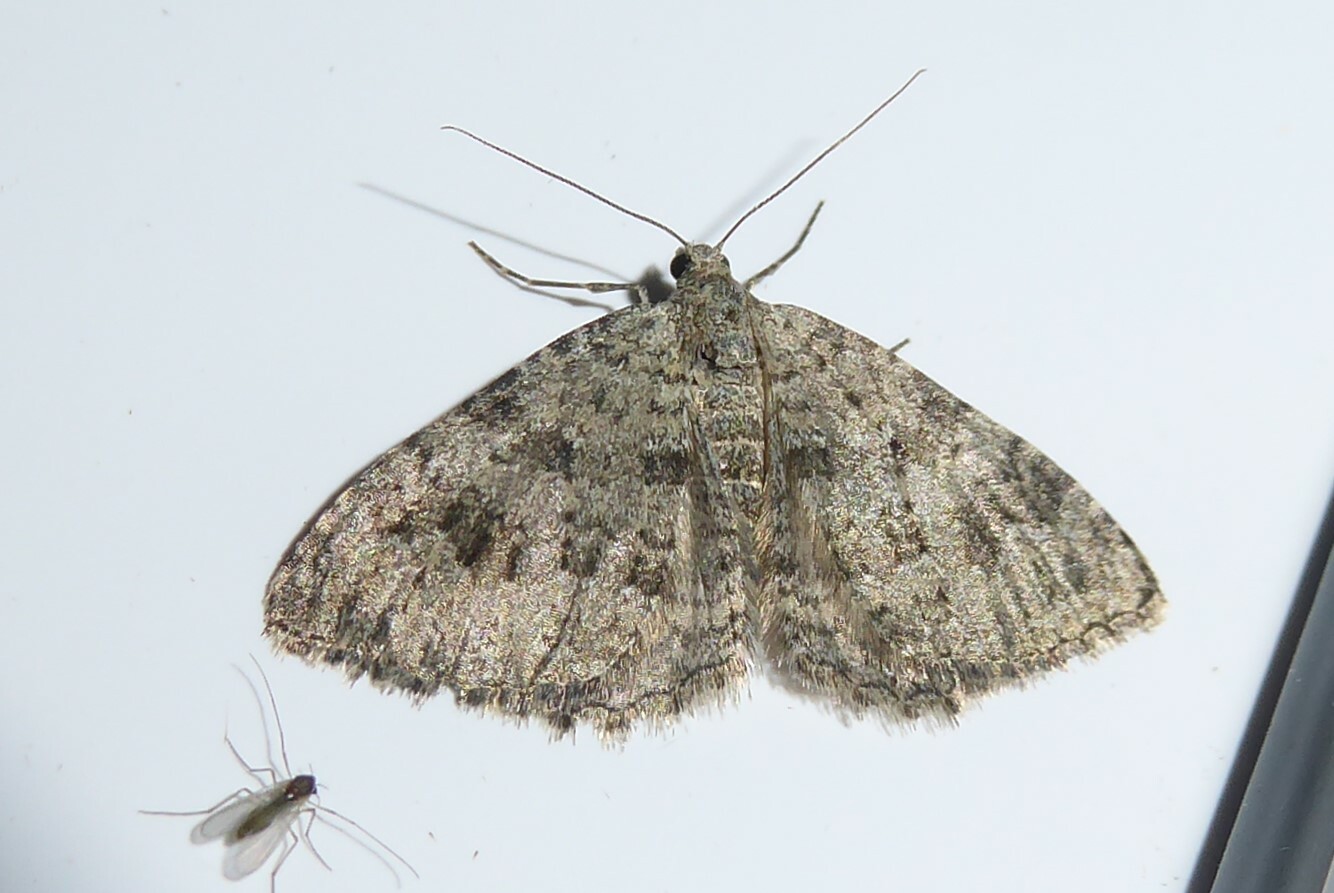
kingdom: Animalia
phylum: Arthropoda
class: Insecta
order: Lepidoptera
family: Geometridae
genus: Helastia
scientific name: Helastia corcularia
